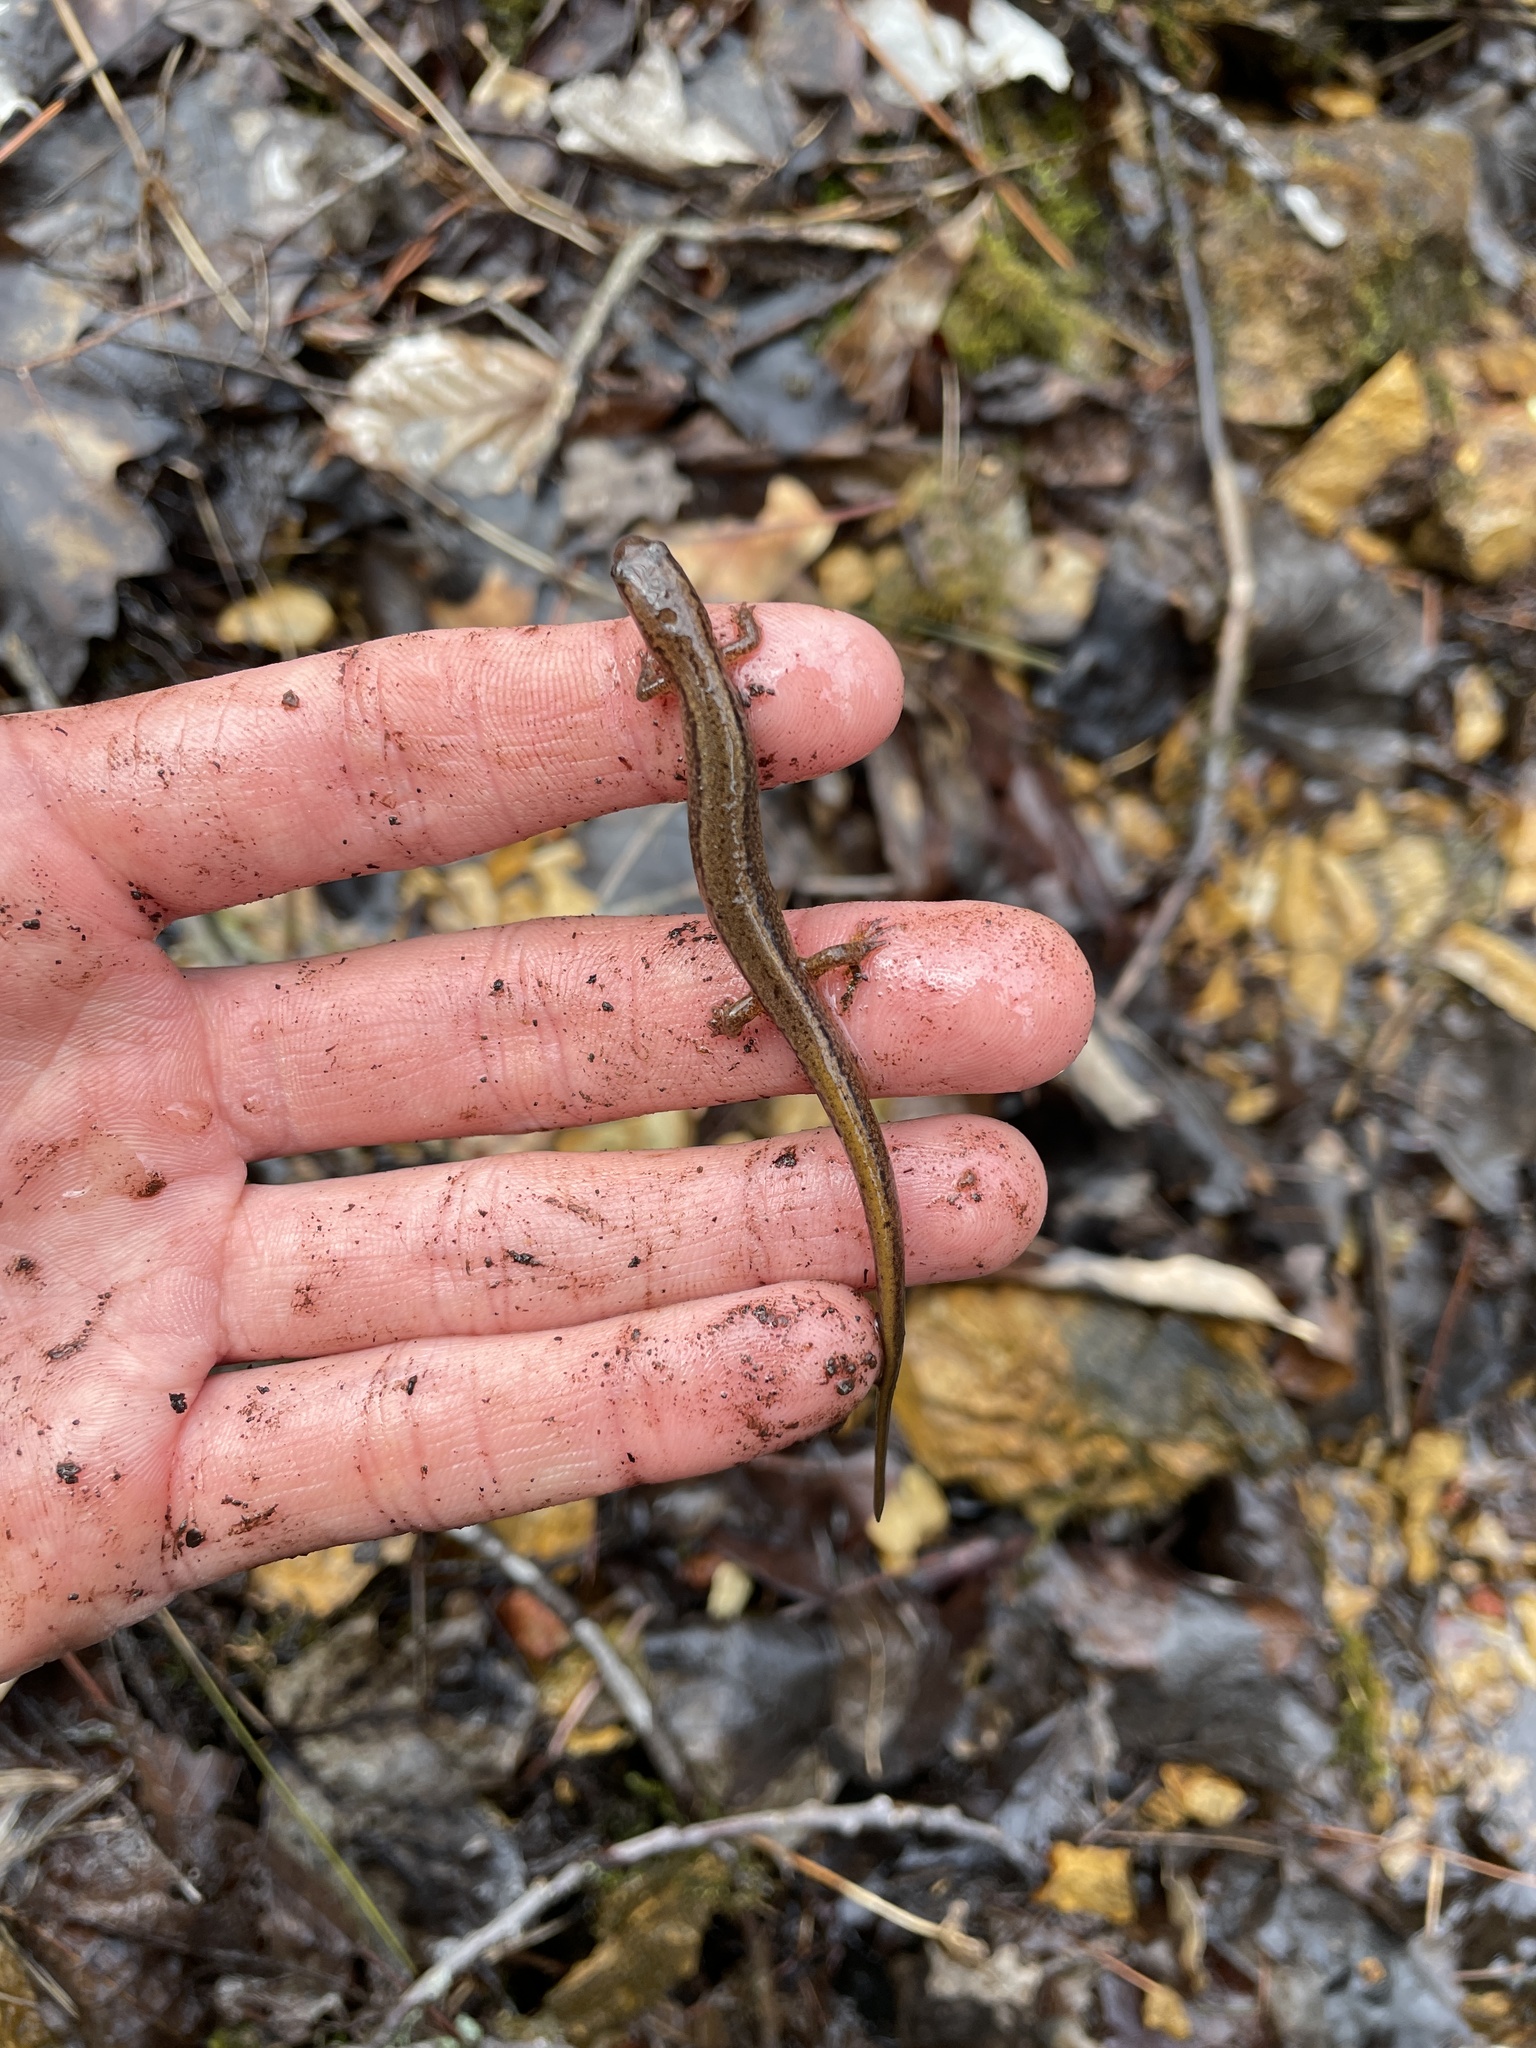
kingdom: Animalia
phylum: Chordata
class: Amphibia
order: Caudata
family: Plethodontidae
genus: Eurycea
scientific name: Eurycea bislineata
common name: Northern two-lined salamander
